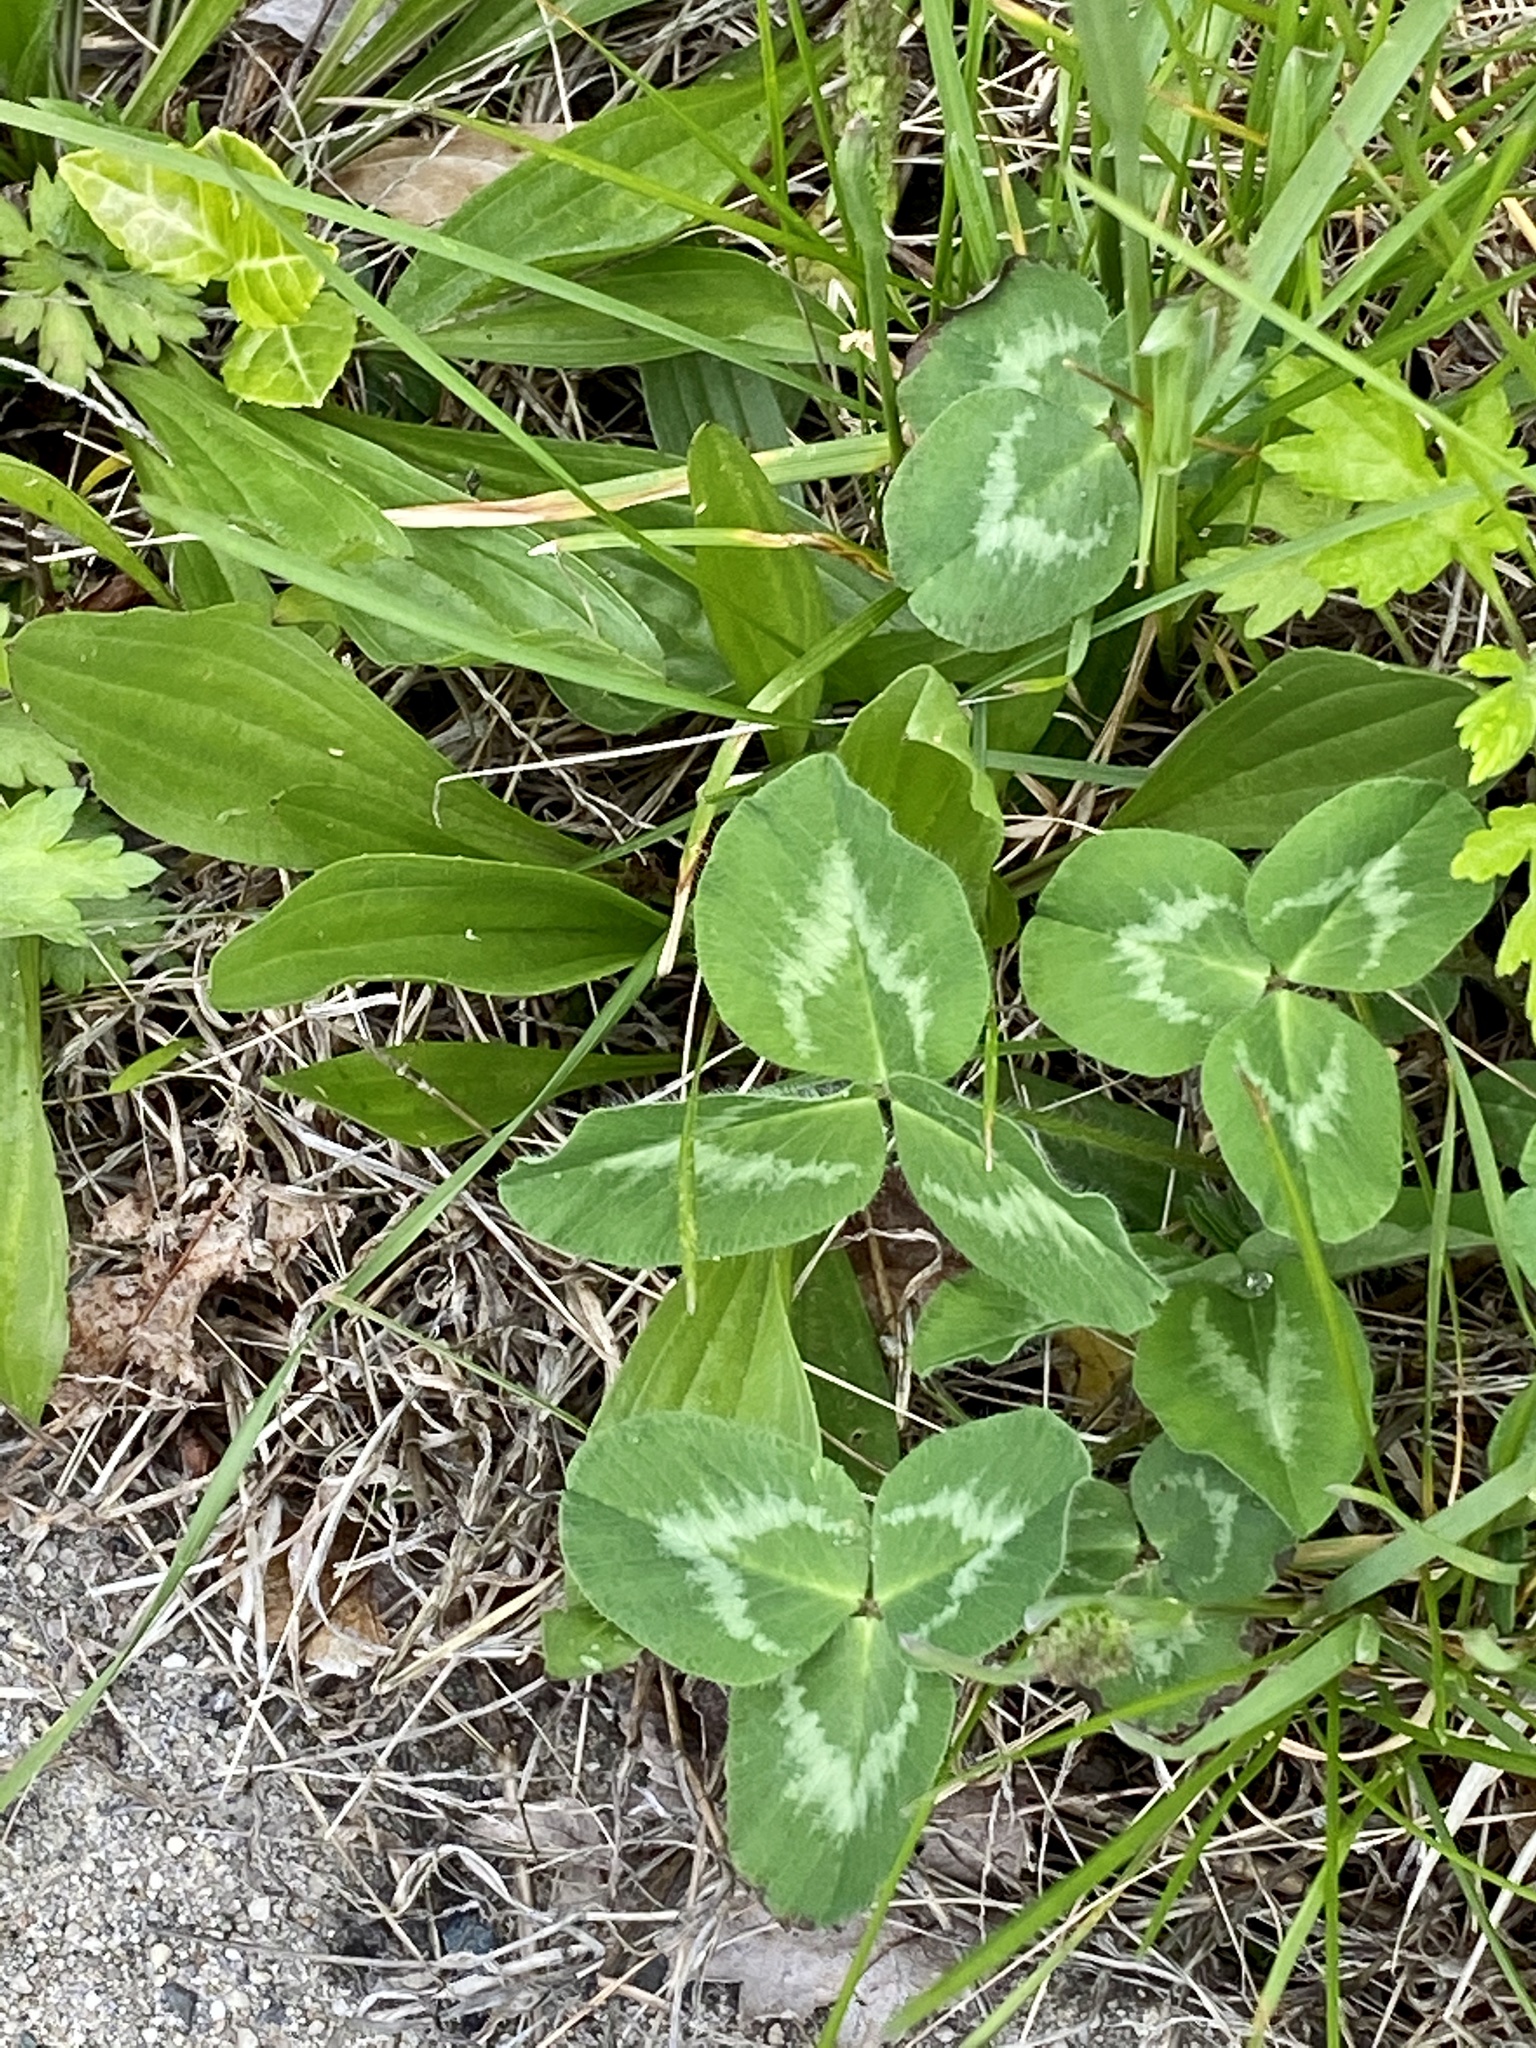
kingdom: Plantae
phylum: Tracheophyta
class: Magnoliopsida
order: Fabales
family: Fabaceae
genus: Trifolium
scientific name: Trifolium pratense
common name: Red clover
